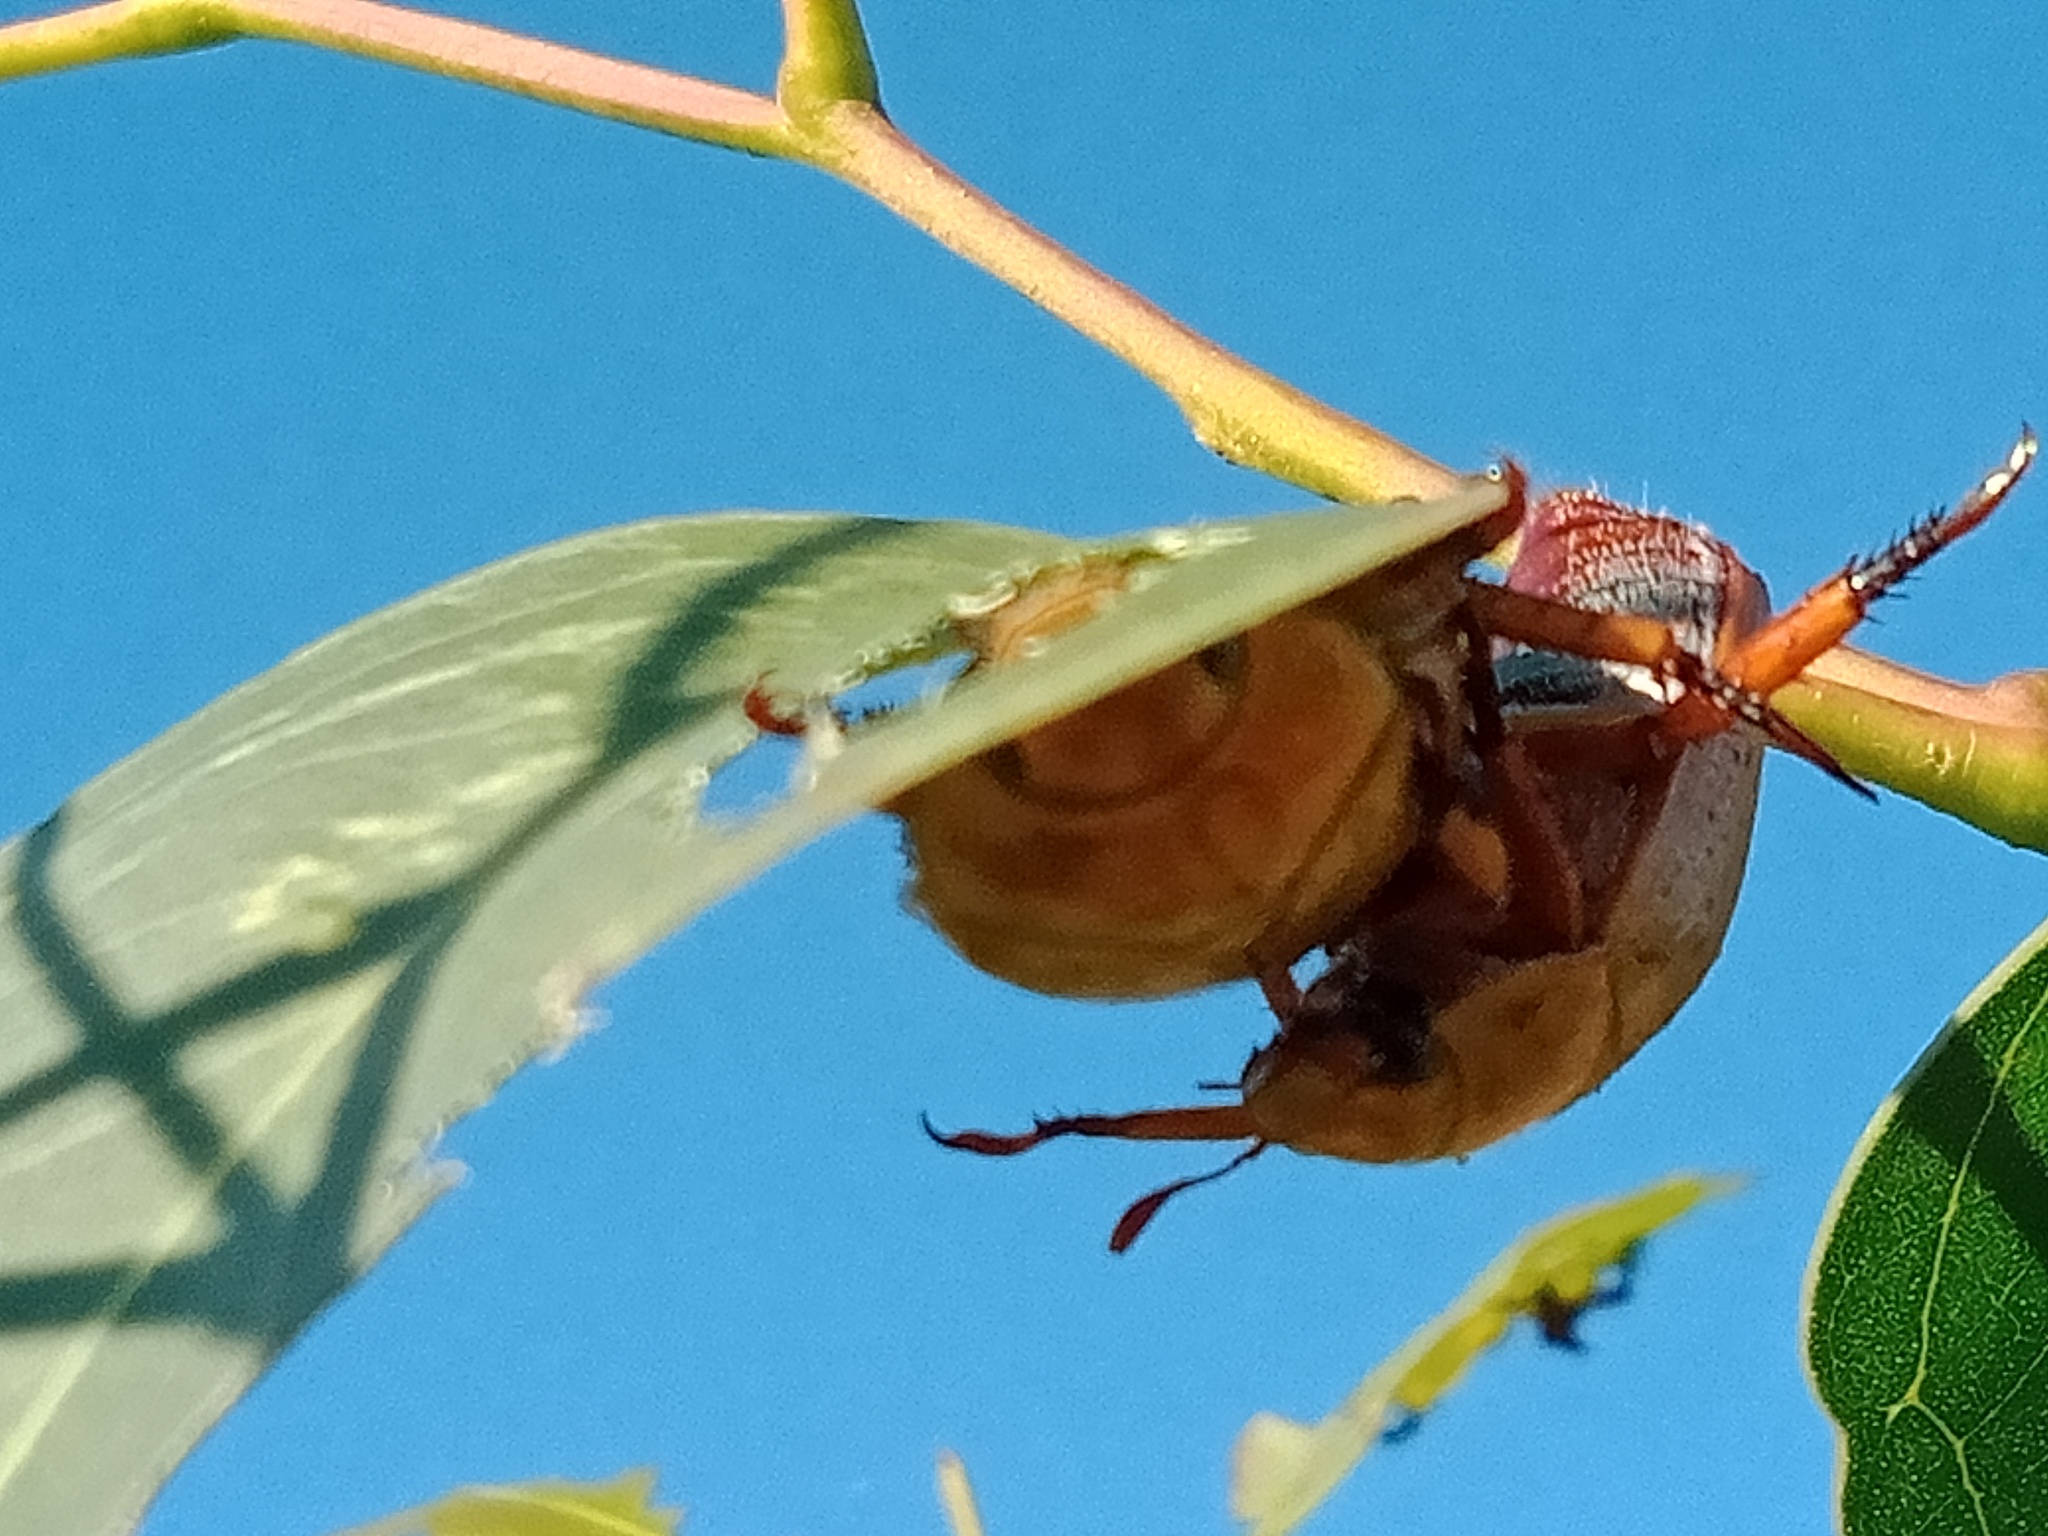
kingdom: Animalia
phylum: Arthropoda
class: Insecta
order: Coleoptera
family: Scarabaeidae
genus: Anoplognathus
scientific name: Anoplognathus porosus
